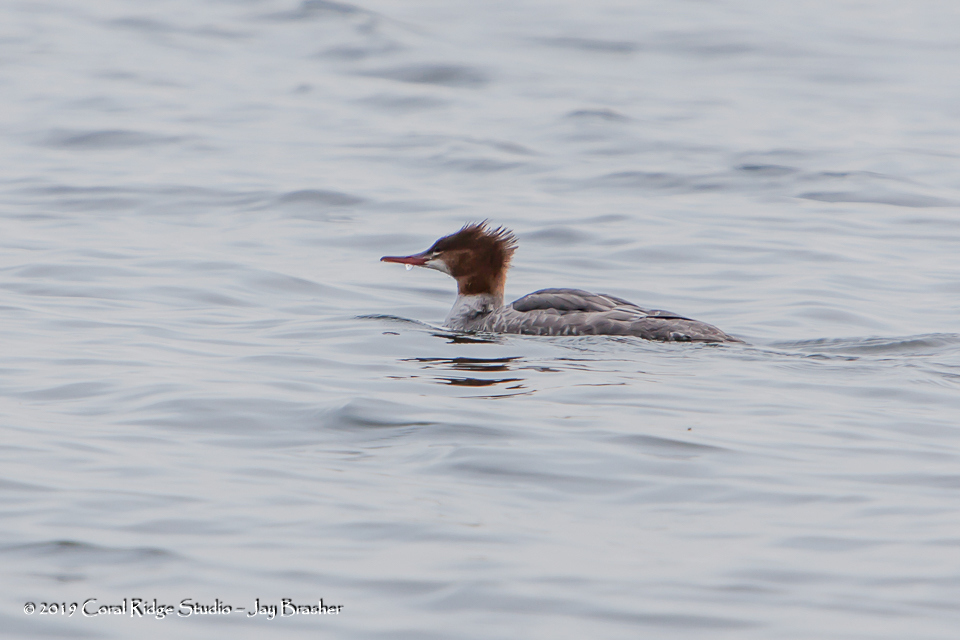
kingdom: Animalia
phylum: Chordata
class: Aves
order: Anseriformes
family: Anatidae
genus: Mergus
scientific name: Mergus merganser
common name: Common merganser
